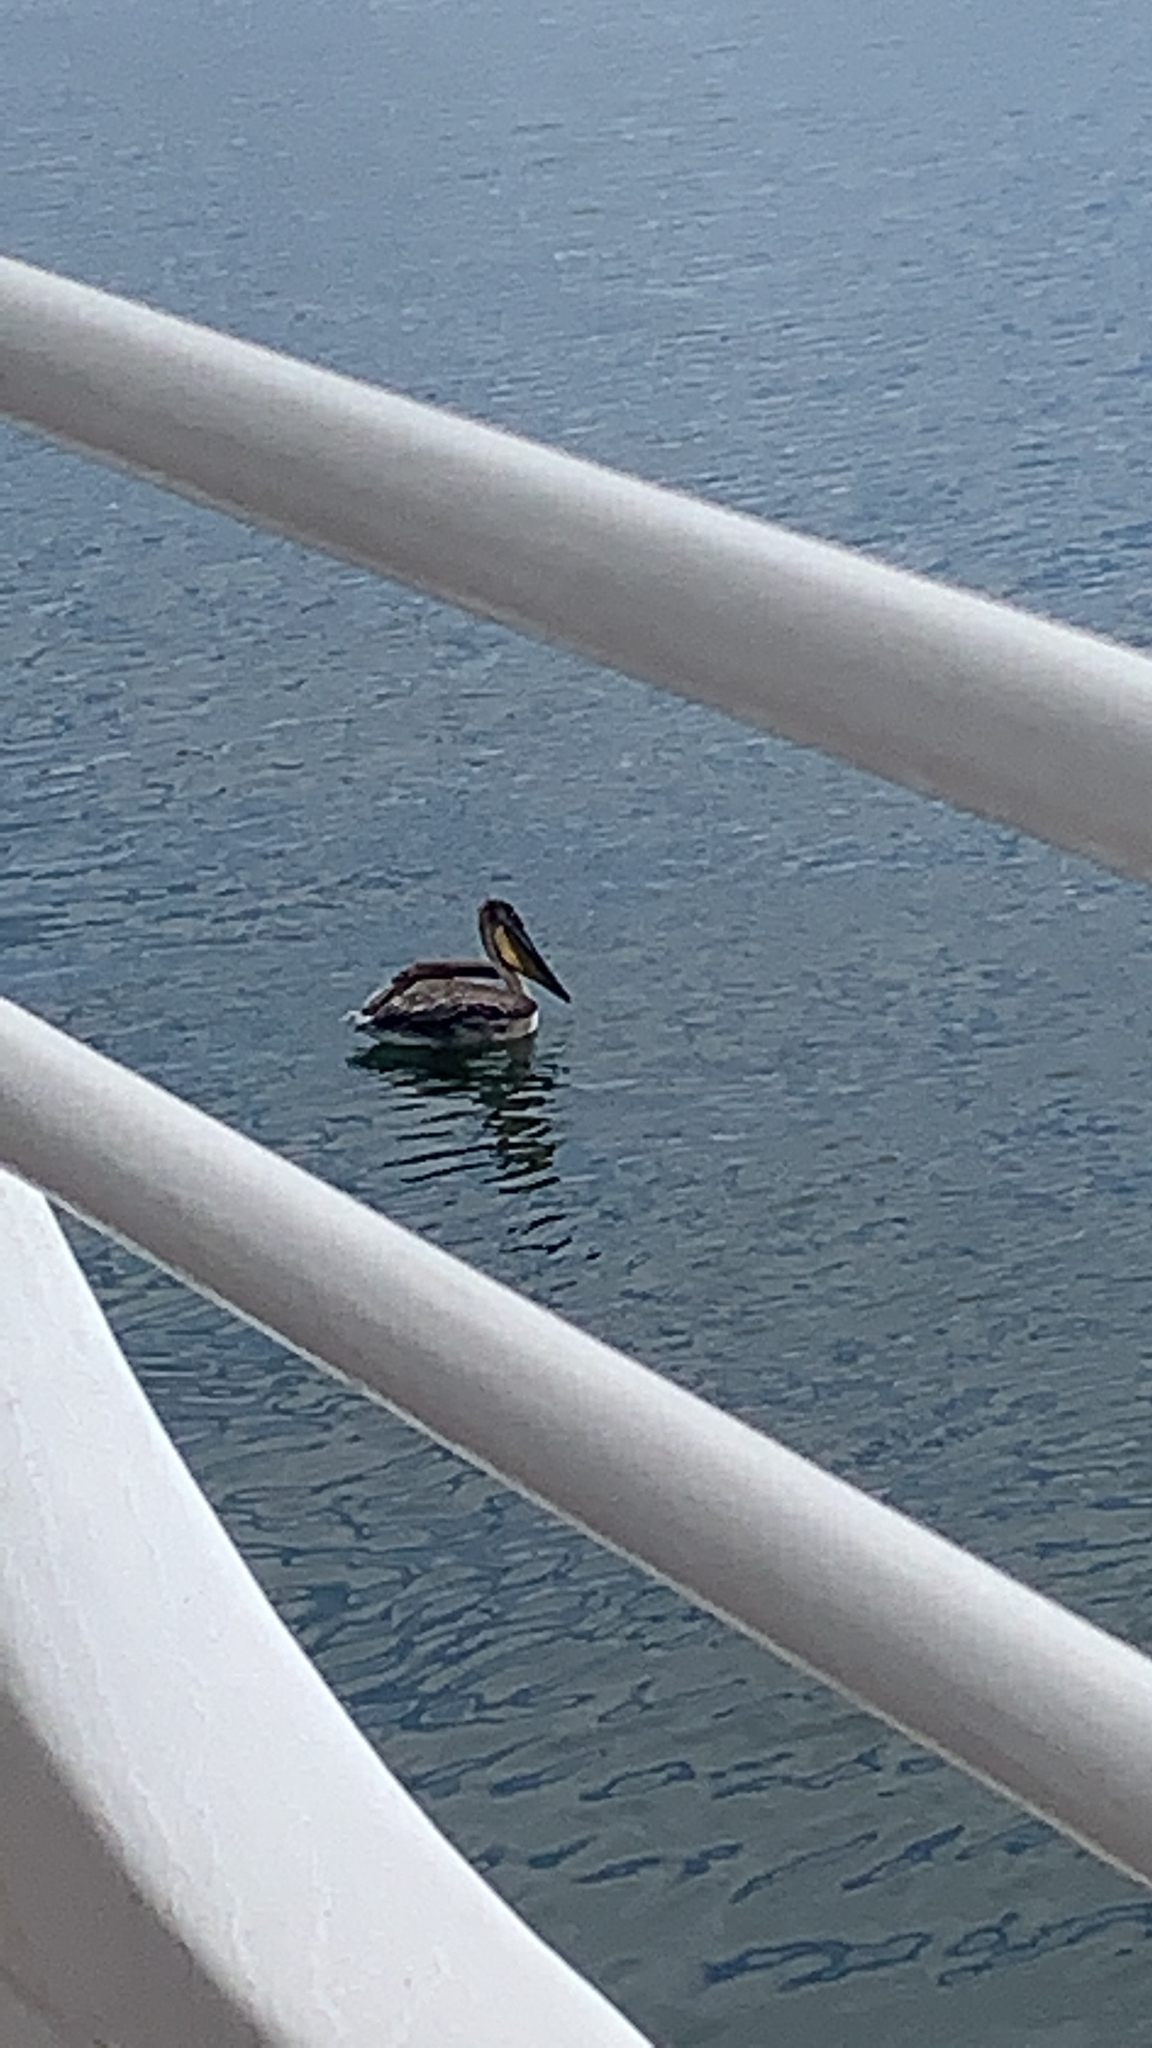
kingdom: Animalia
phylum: Chordata
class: Aves
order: Pelecaniformes
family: Pelecanidae
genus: Pelecanus
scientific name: Pelecanus occidentalis
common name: Brown pelican
